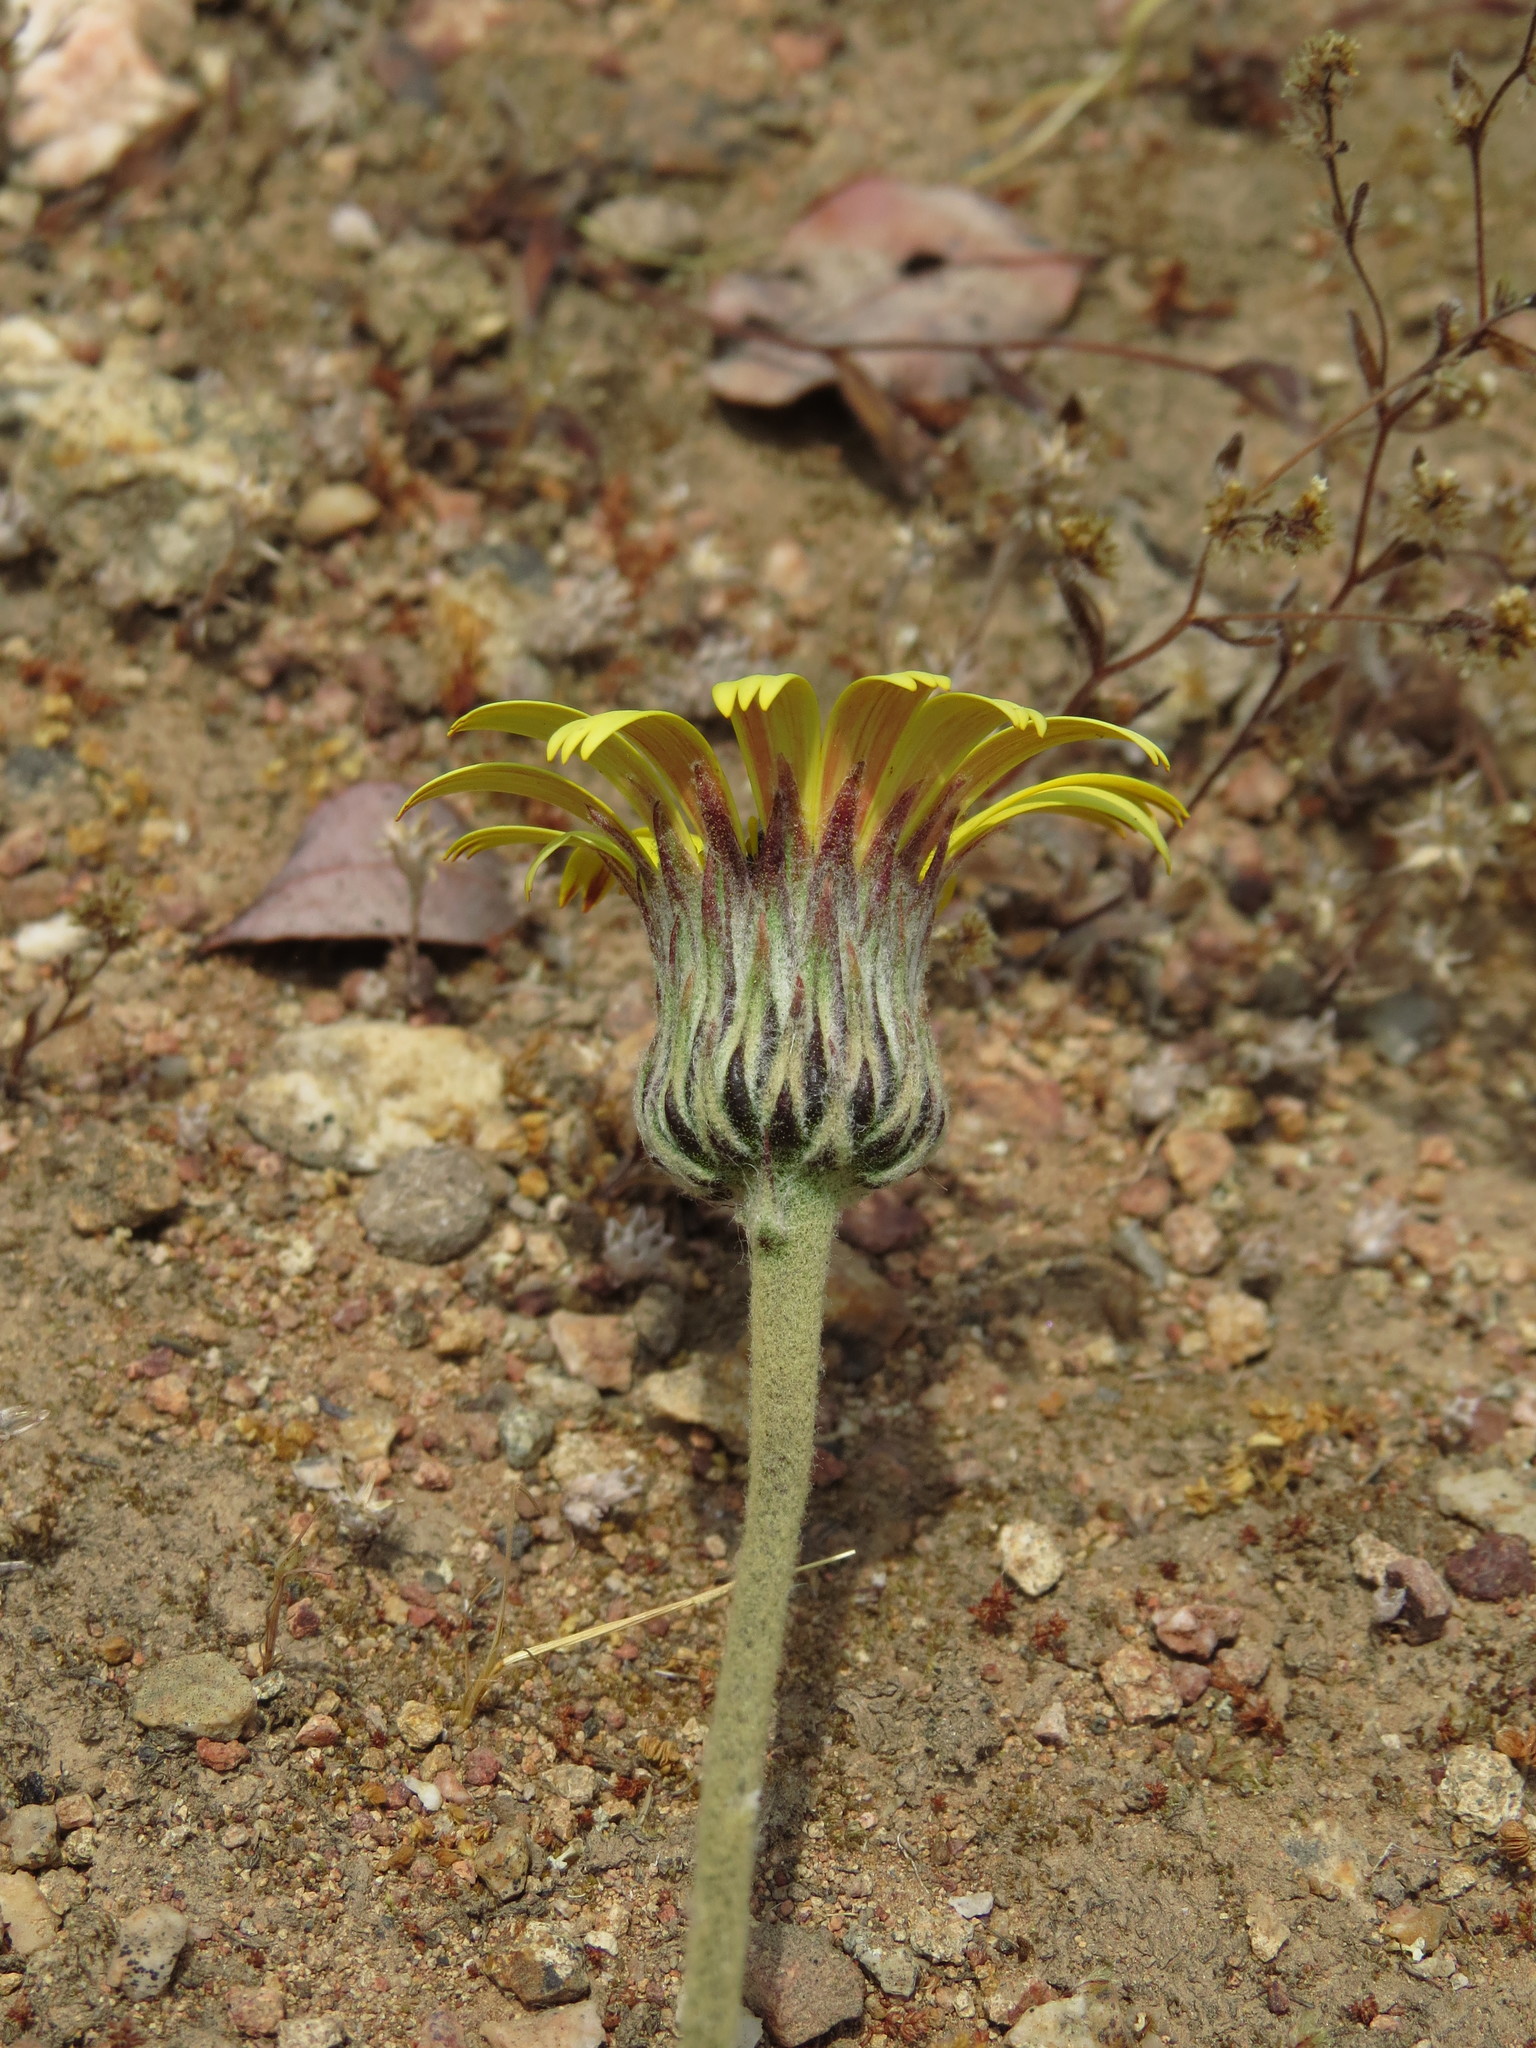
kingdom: Plantae
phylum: Tracheophyta
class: Magnoliopsida
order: Asterales
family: Asteraceae
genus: Trichocline
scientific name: Trichocline aurea
